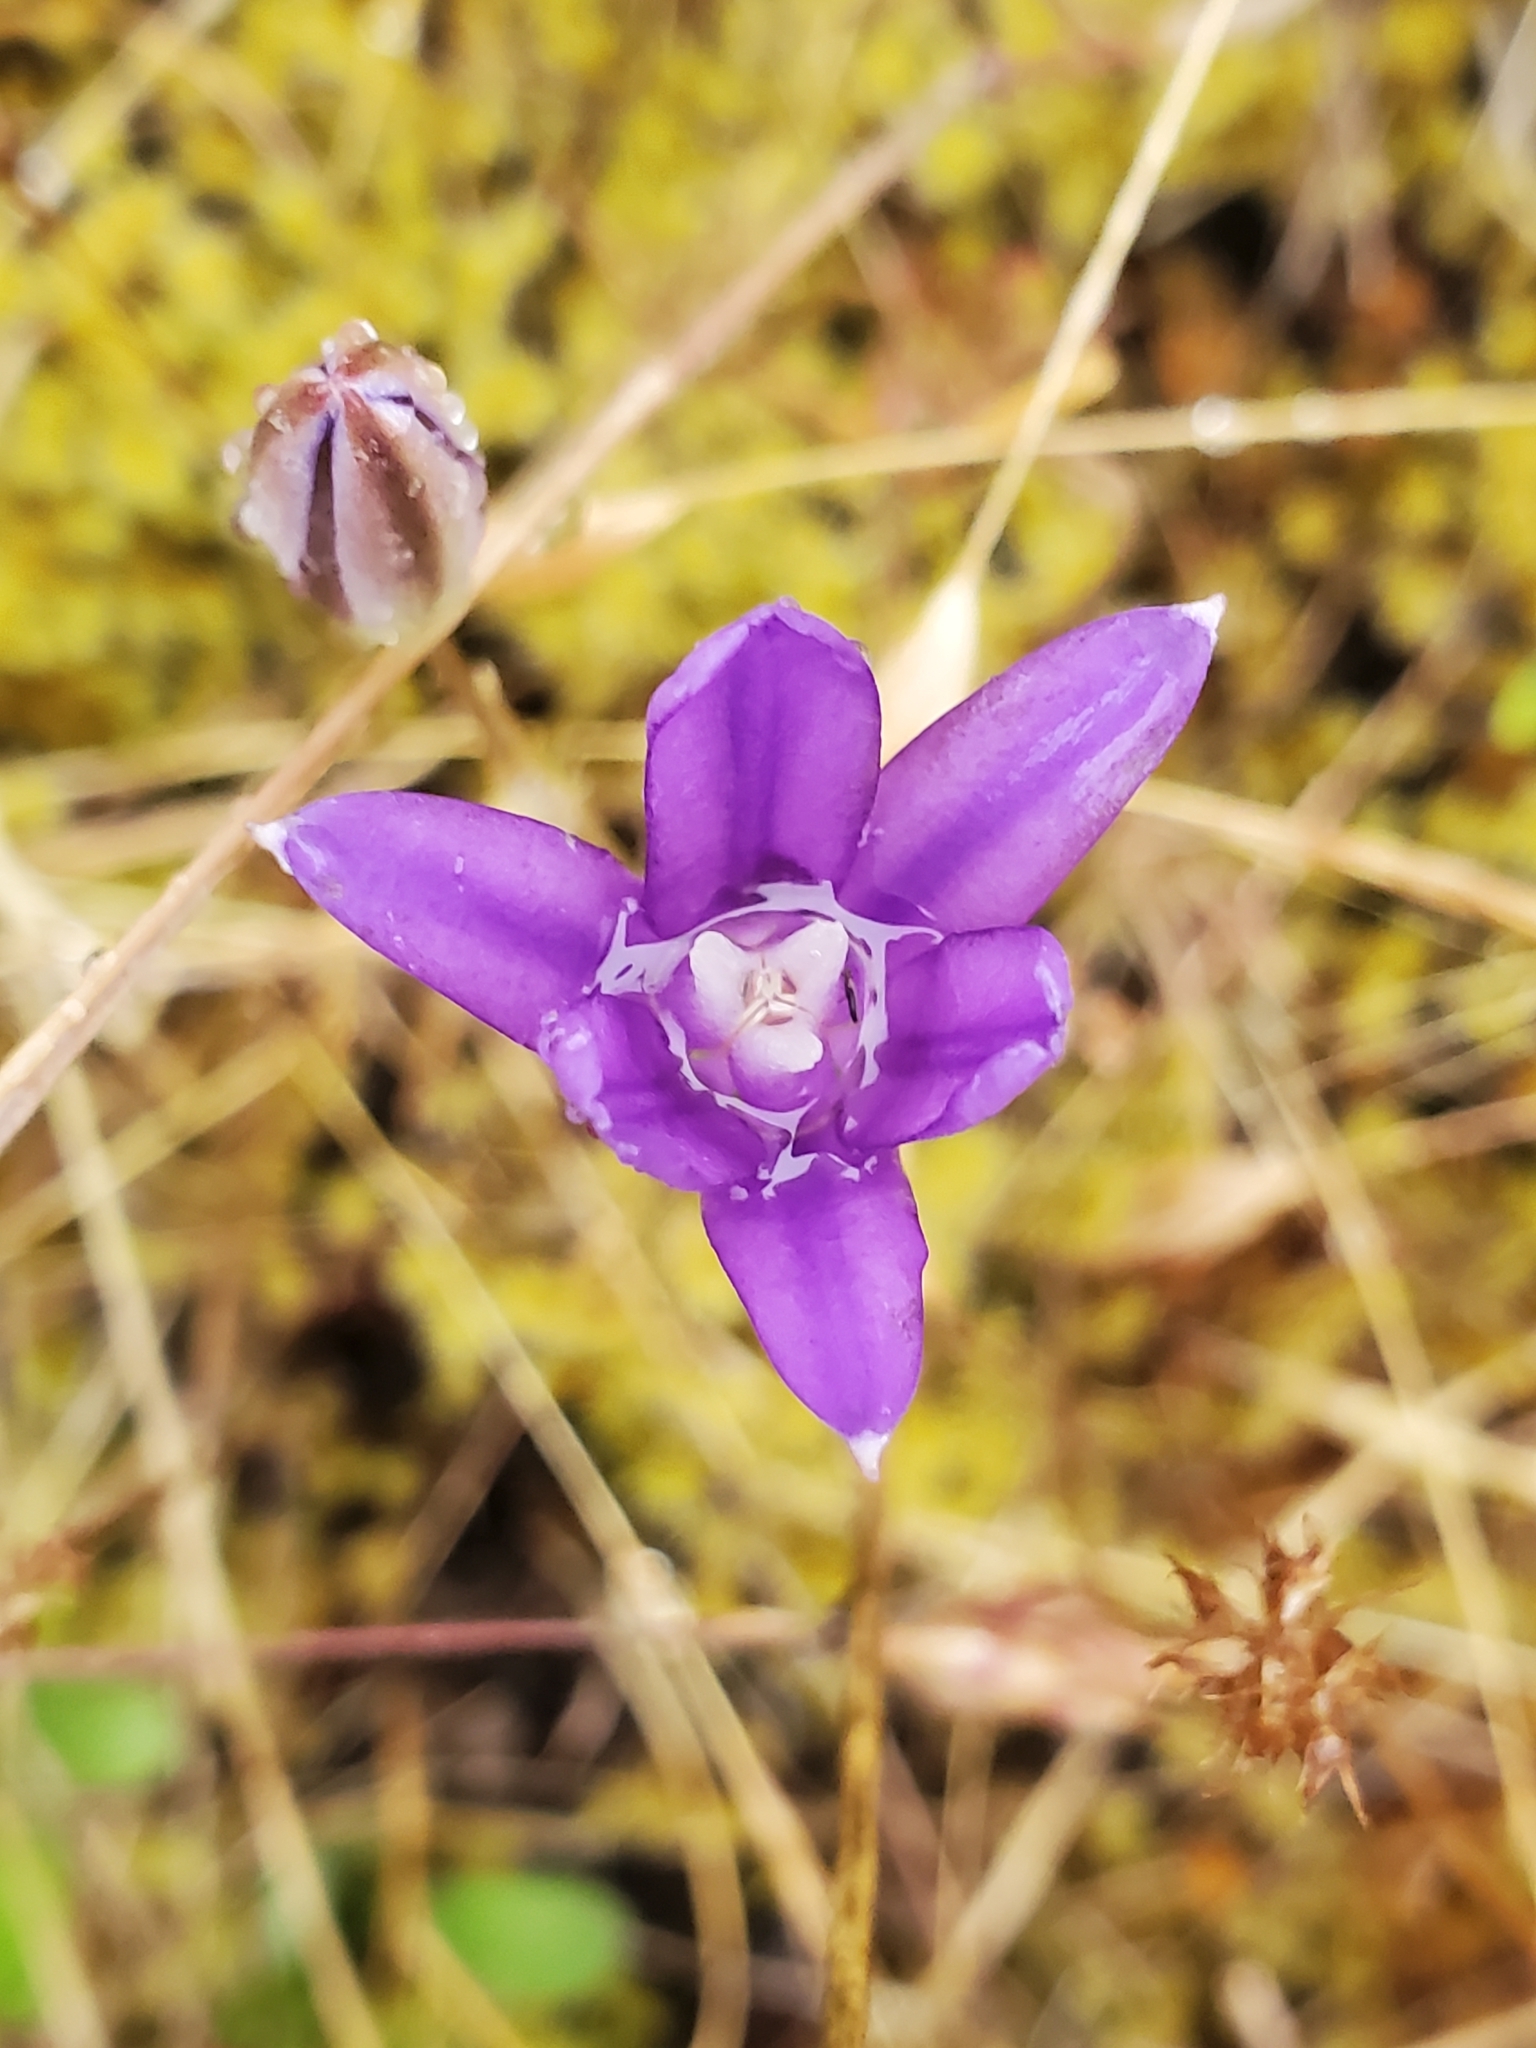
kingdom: Plantae
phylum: Tracheophyta
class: Liliopsida
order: Asparagales
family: Asparagaceae
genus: Brodiaea
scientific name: Brodiaea coronaria
